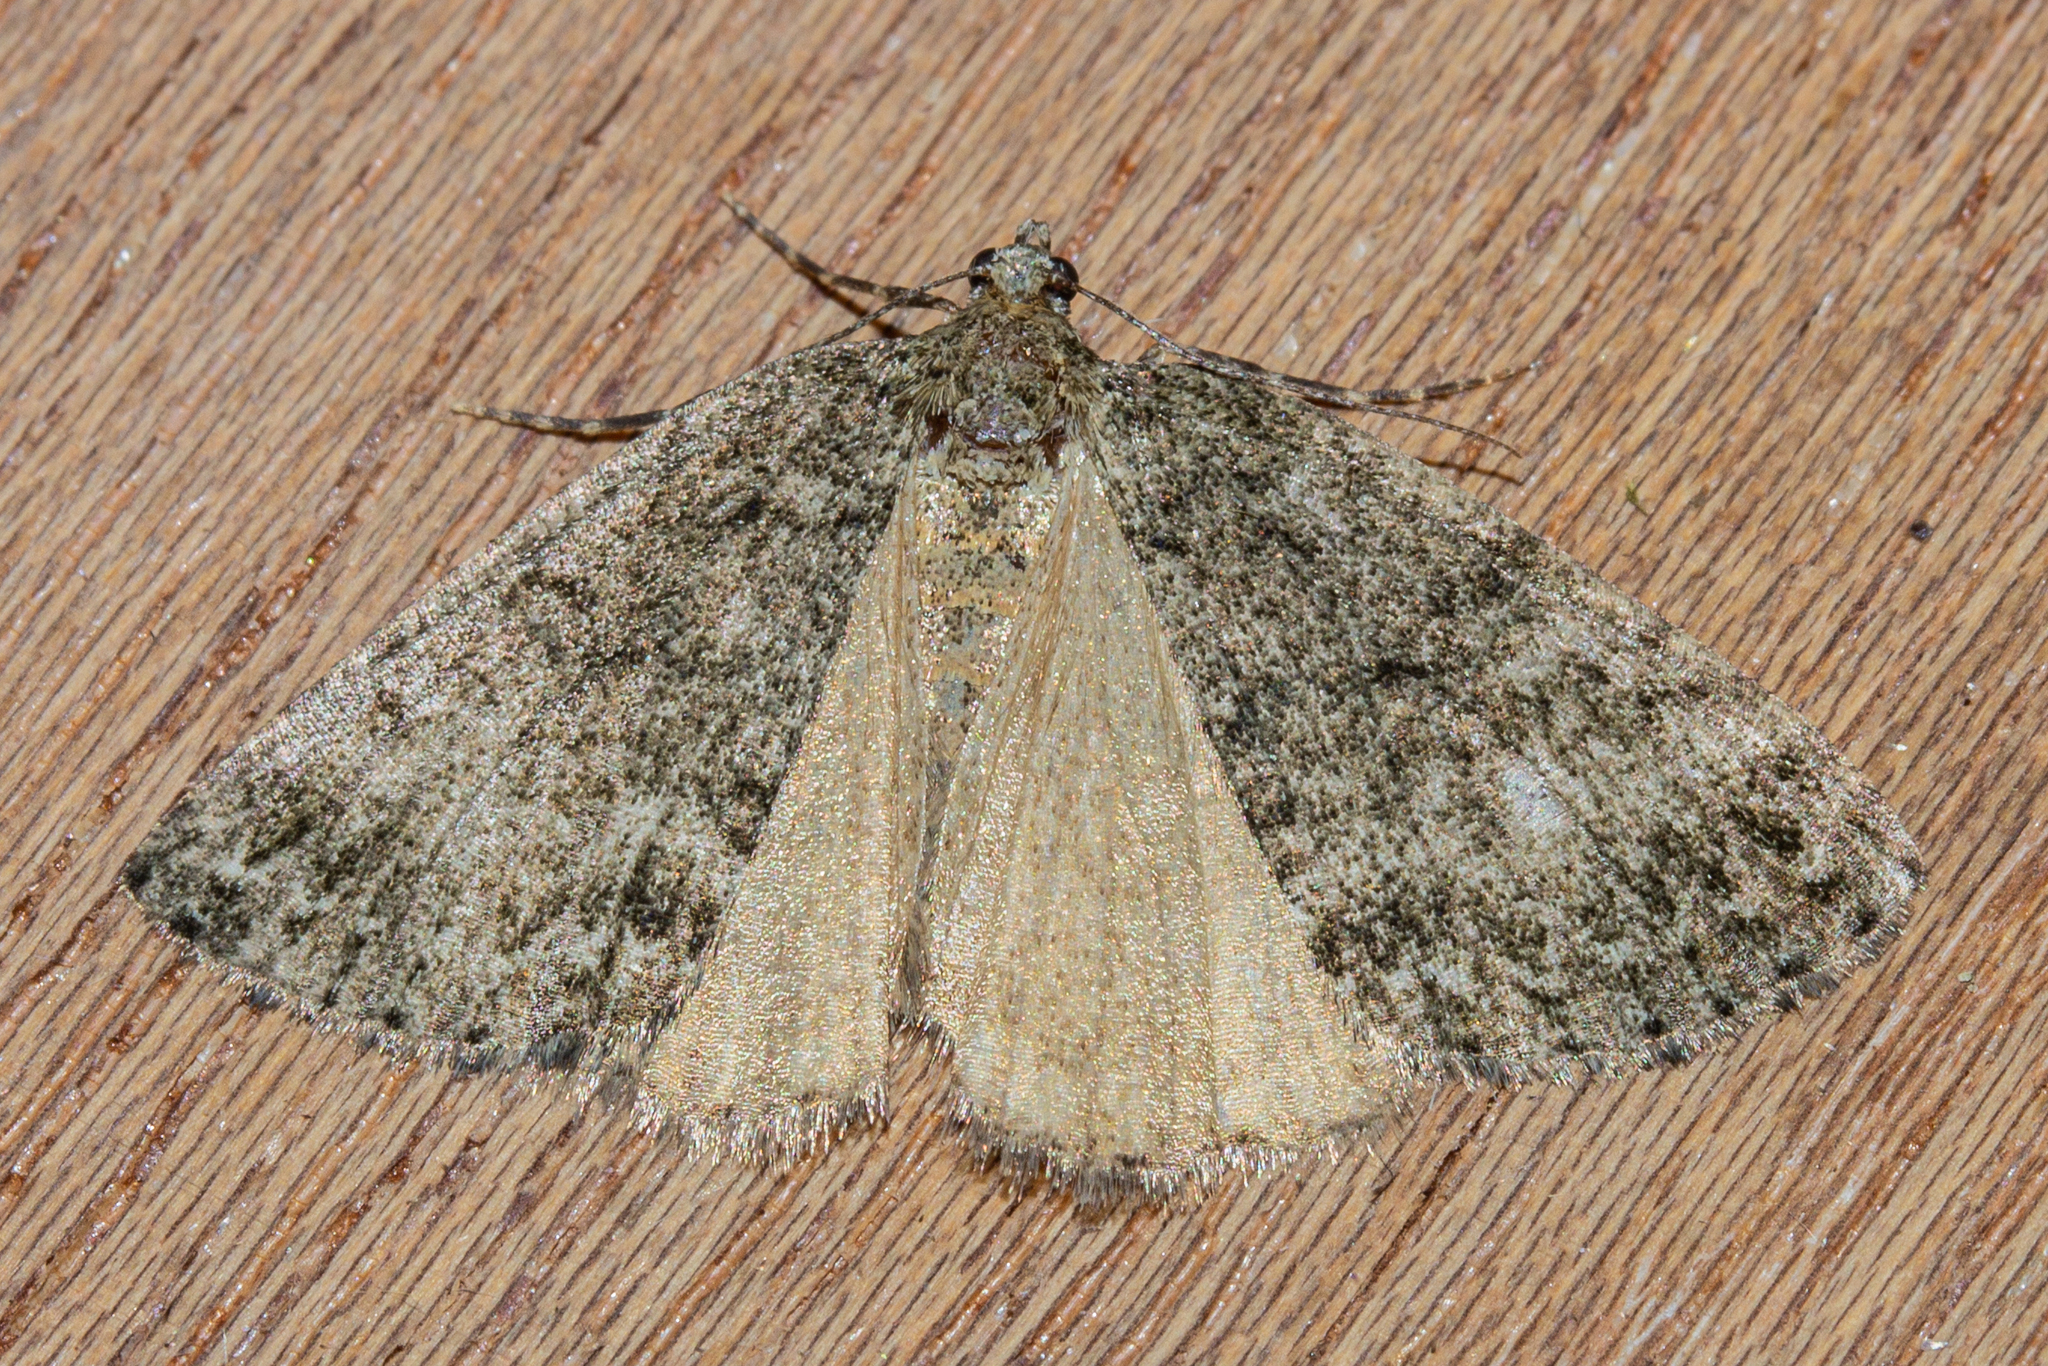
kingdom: Animalia
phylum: Arthropoda
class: Insecta
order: Lepidoptera
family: Geometridae
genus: Pseudocoremia
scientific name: Pseudocoremia indistincta
